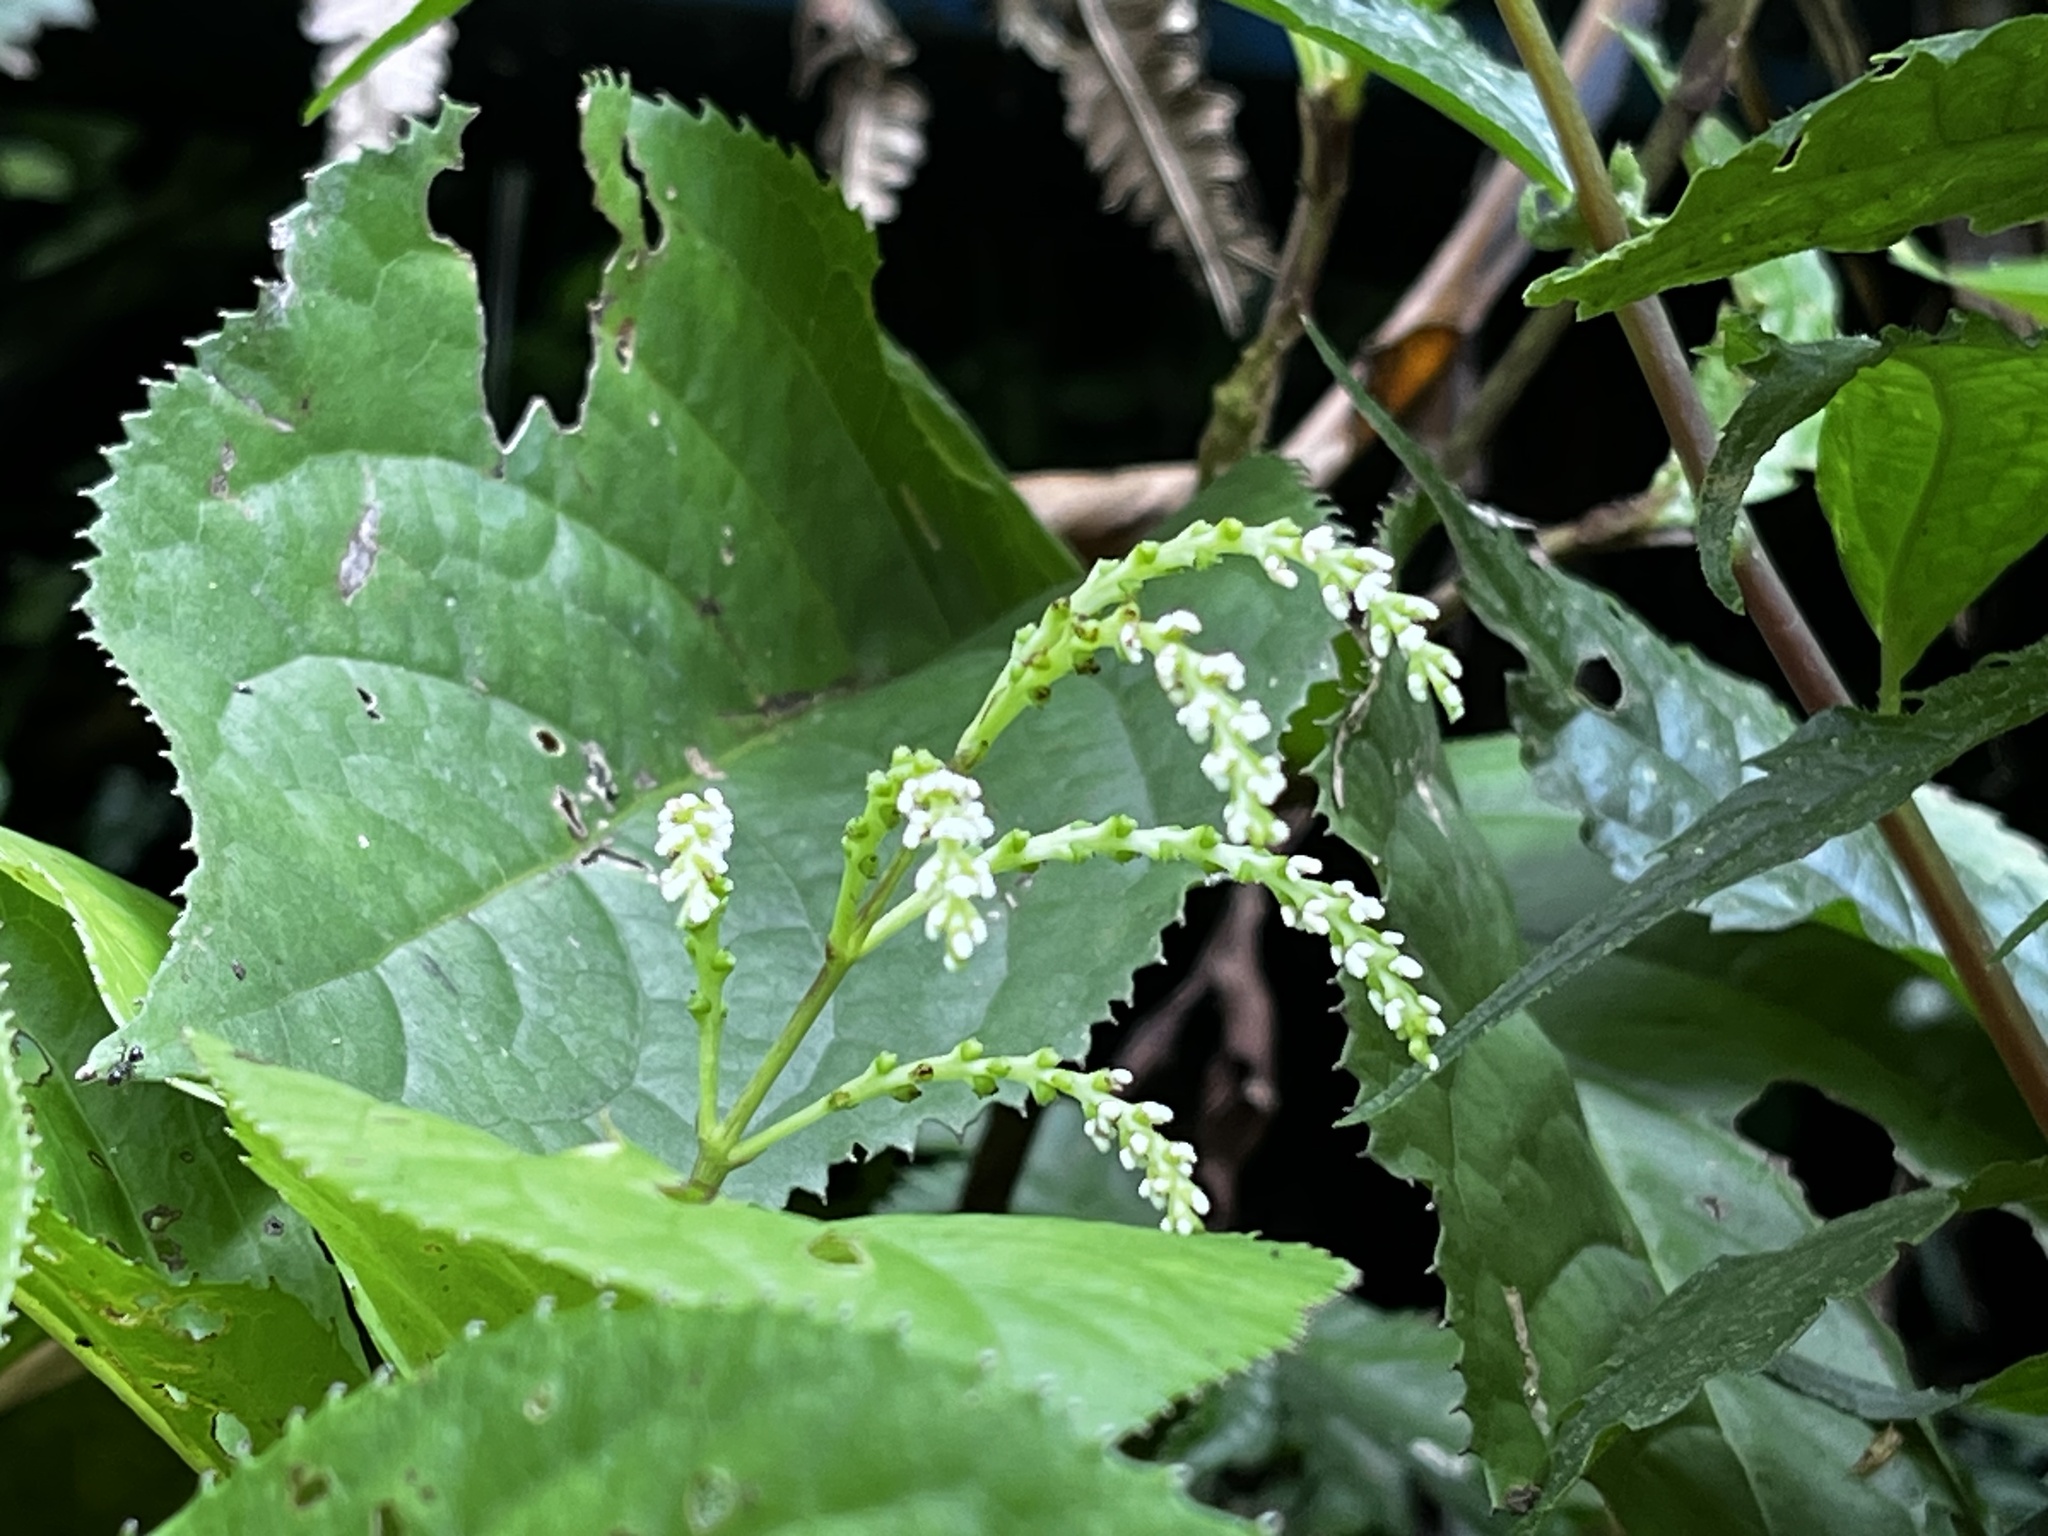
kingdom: Plantae
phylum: Tracheophyta
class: Magnoliopsida
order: Chloranthales
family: Chloranthaceae
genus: Chloranthus
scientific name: Chloranthus oldhamii
